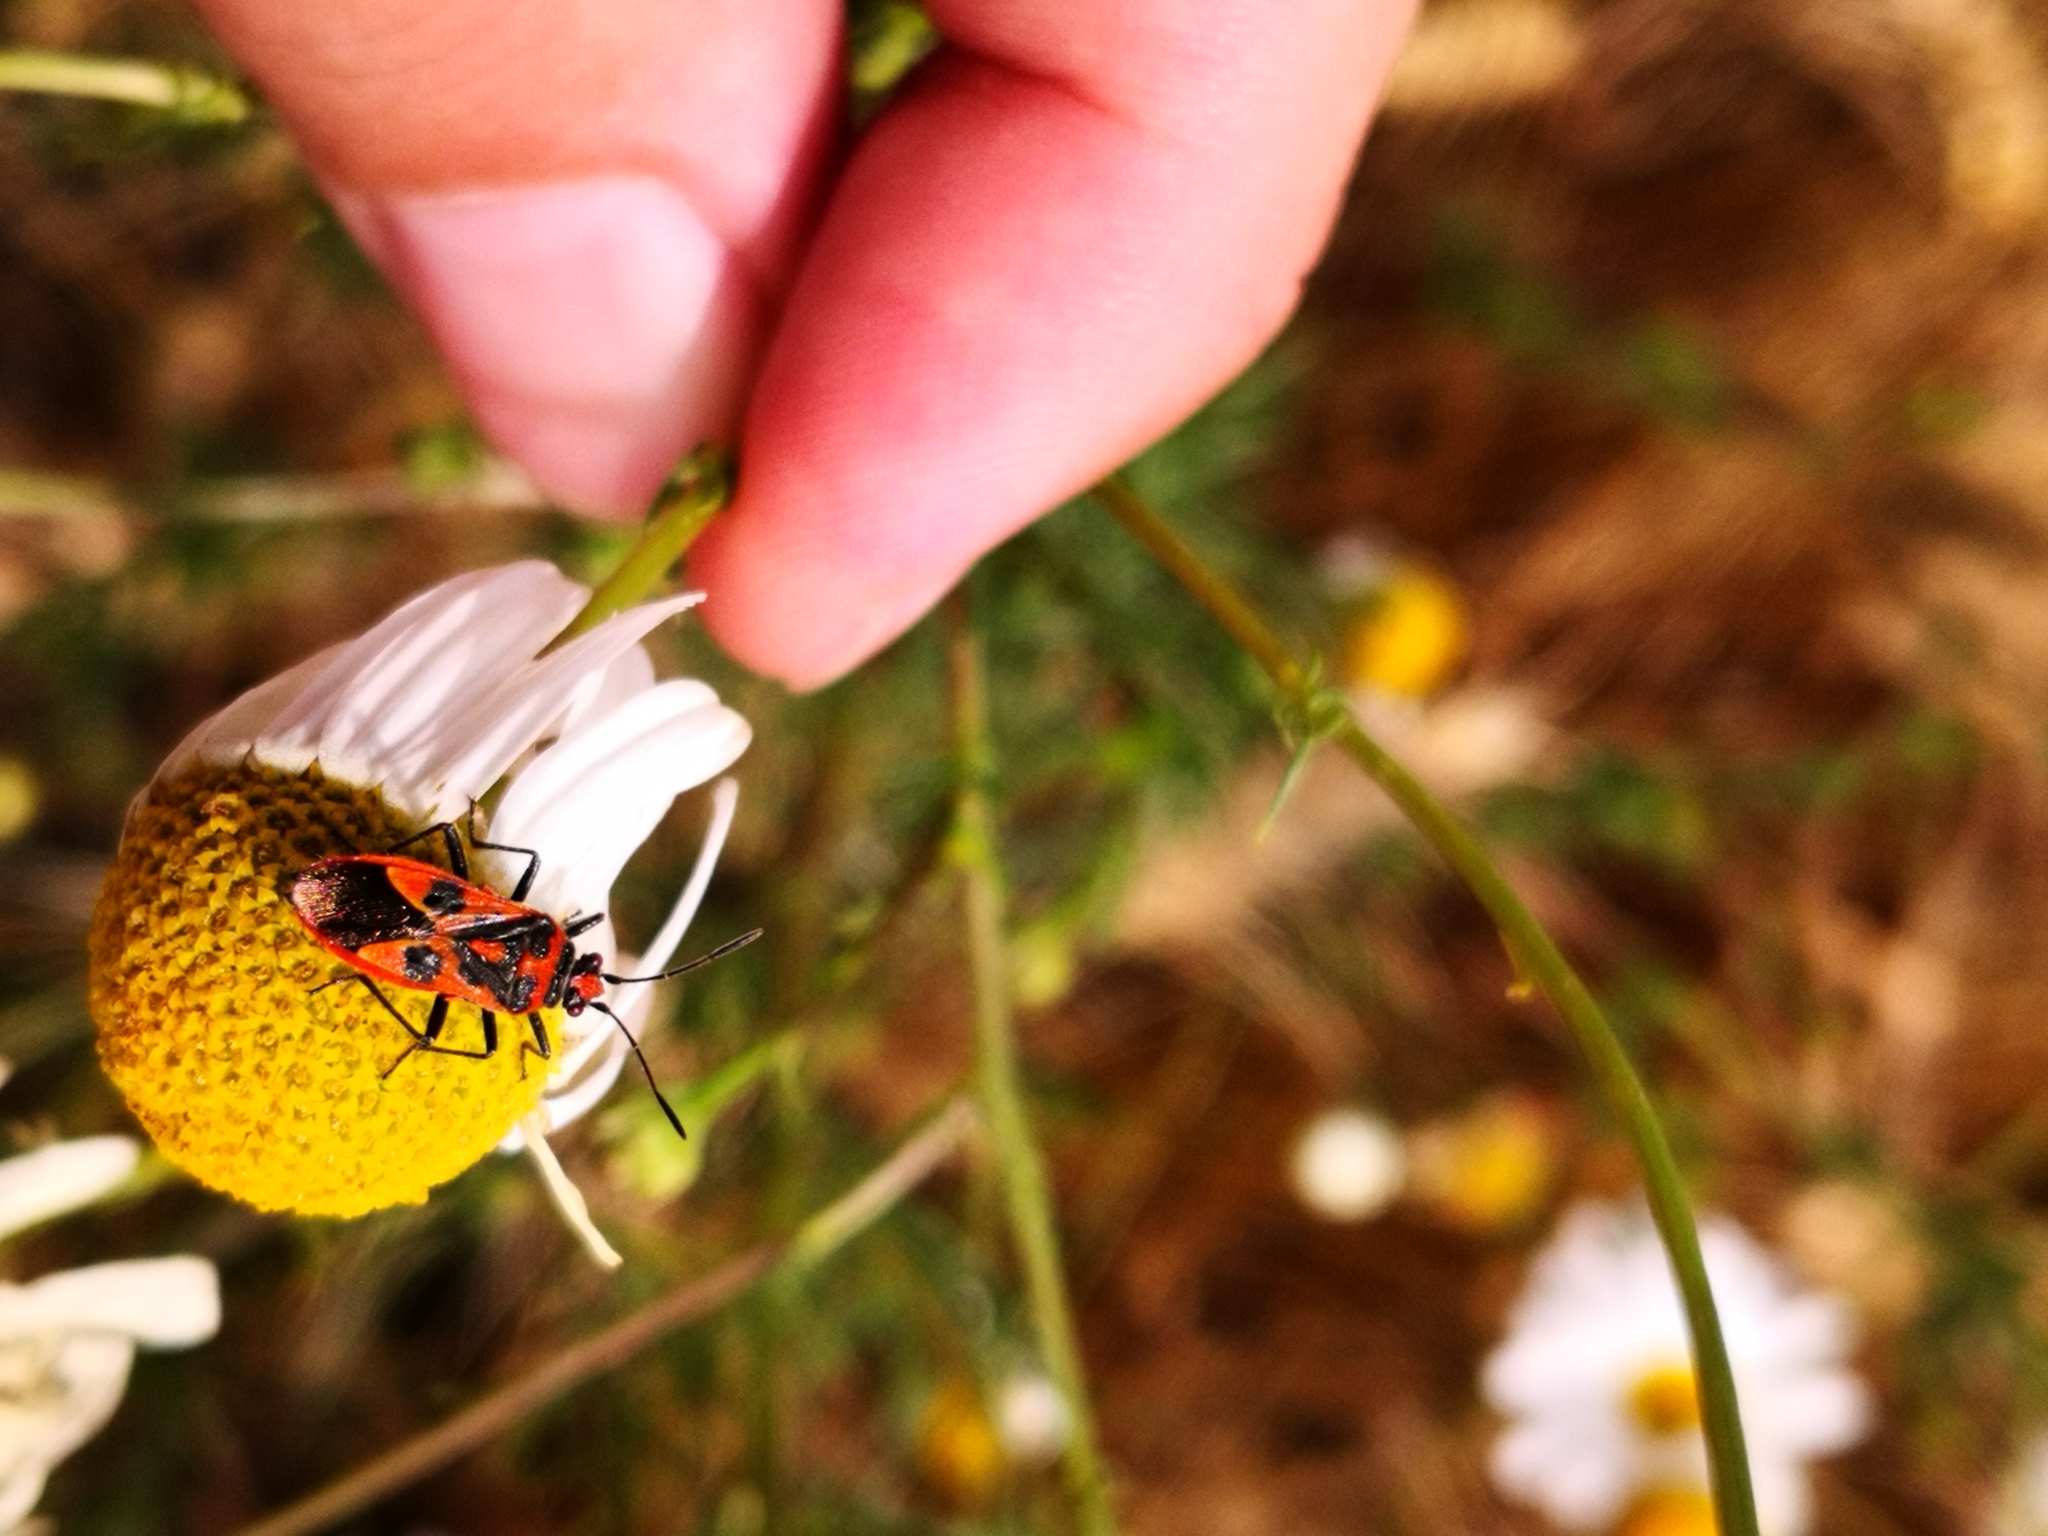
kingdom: Animalia
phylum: Arthropoda
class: Insecta
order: Hemiptera
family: Rhopalidae
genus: Corizus
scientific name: Corizus hyoscyami
